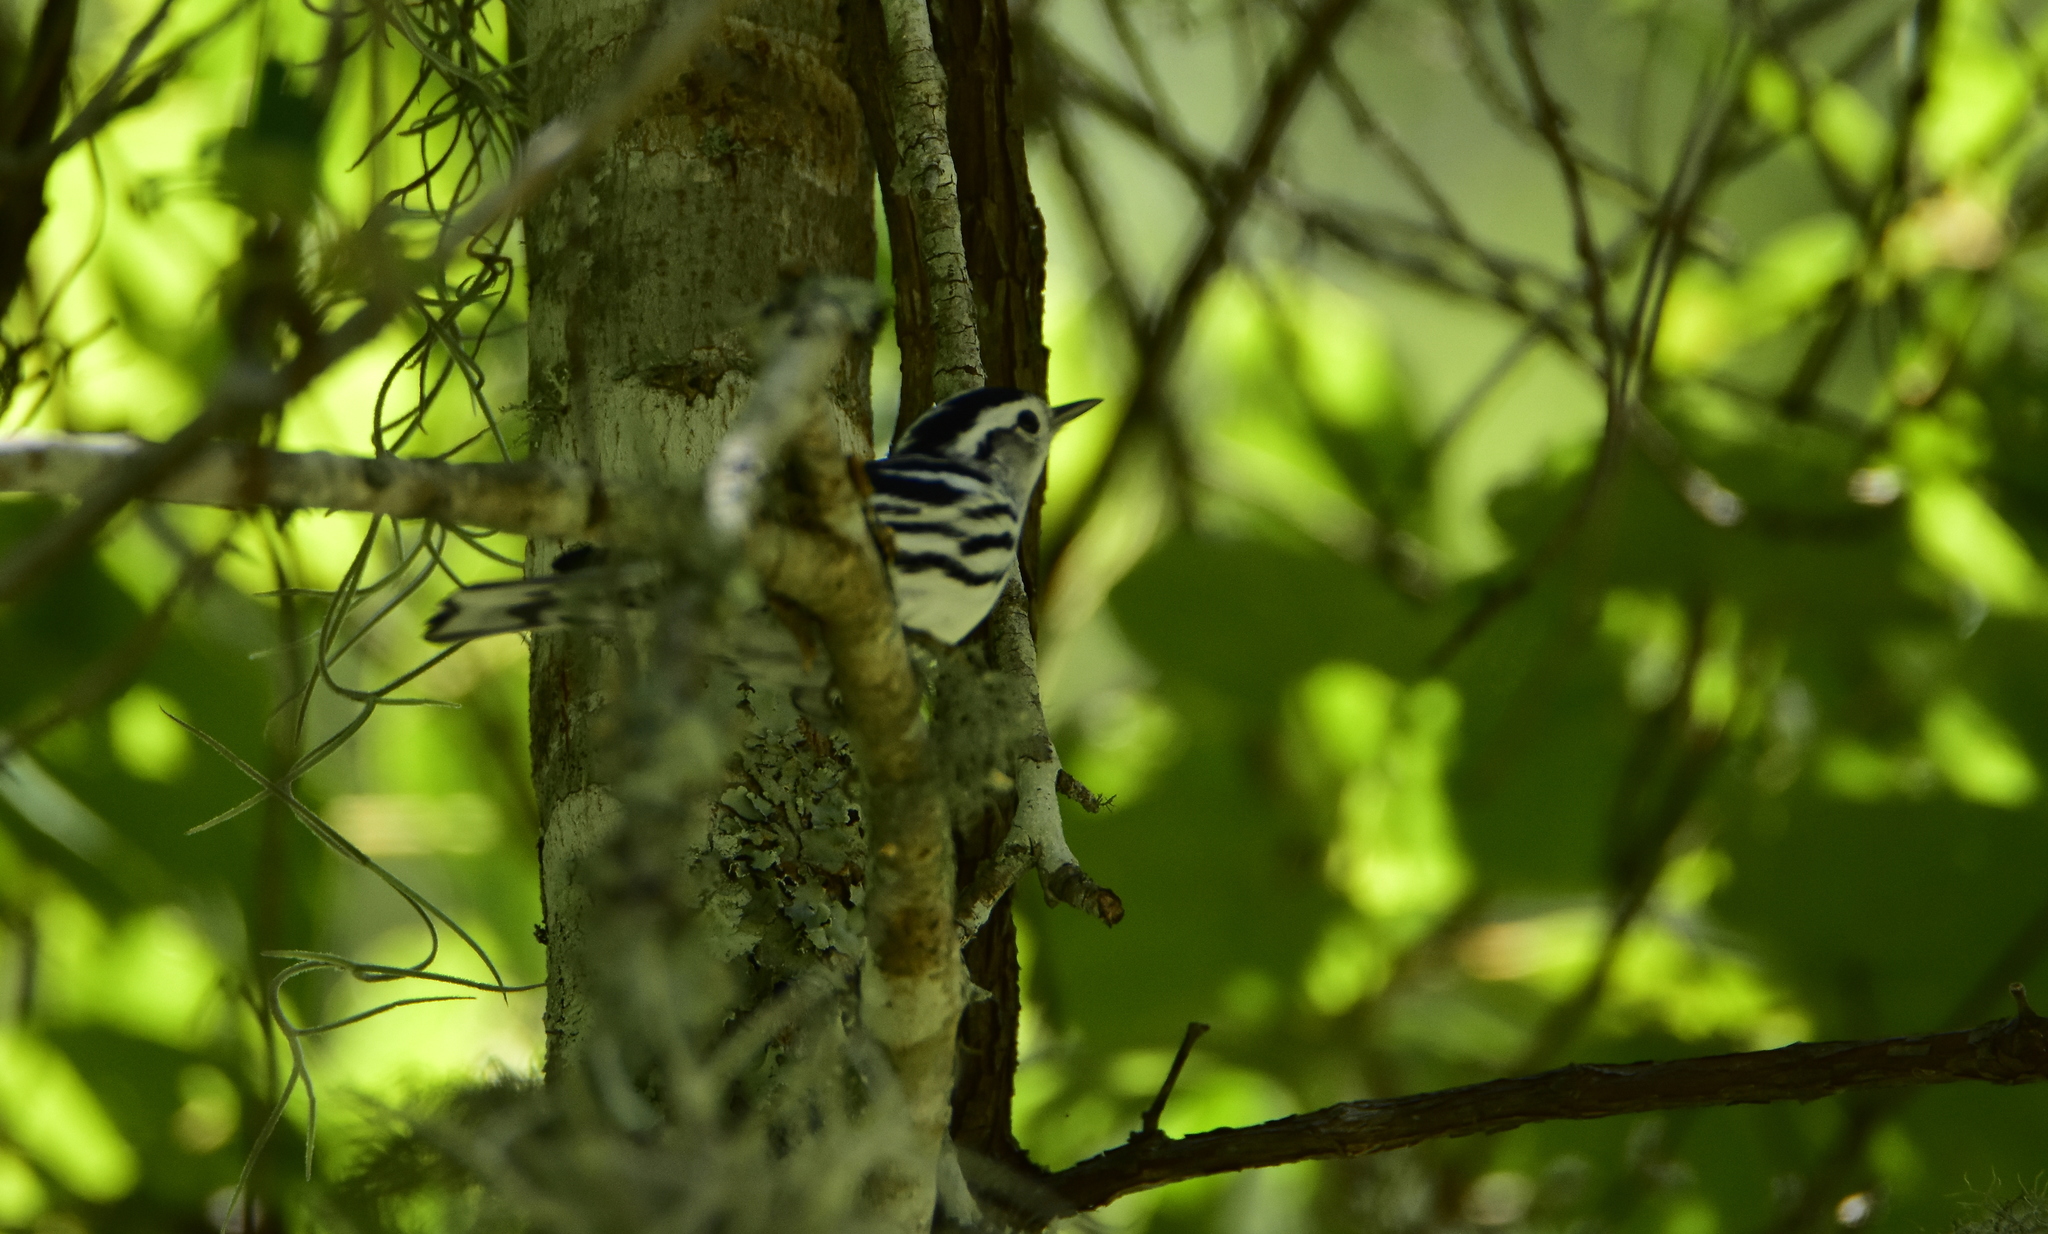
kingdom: Animalia
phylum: Chordata
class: Aves
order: Passeriformes
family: Parulidae
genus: Mniotilta
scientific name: Mniotilta varia
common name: Black-and-white warbler
